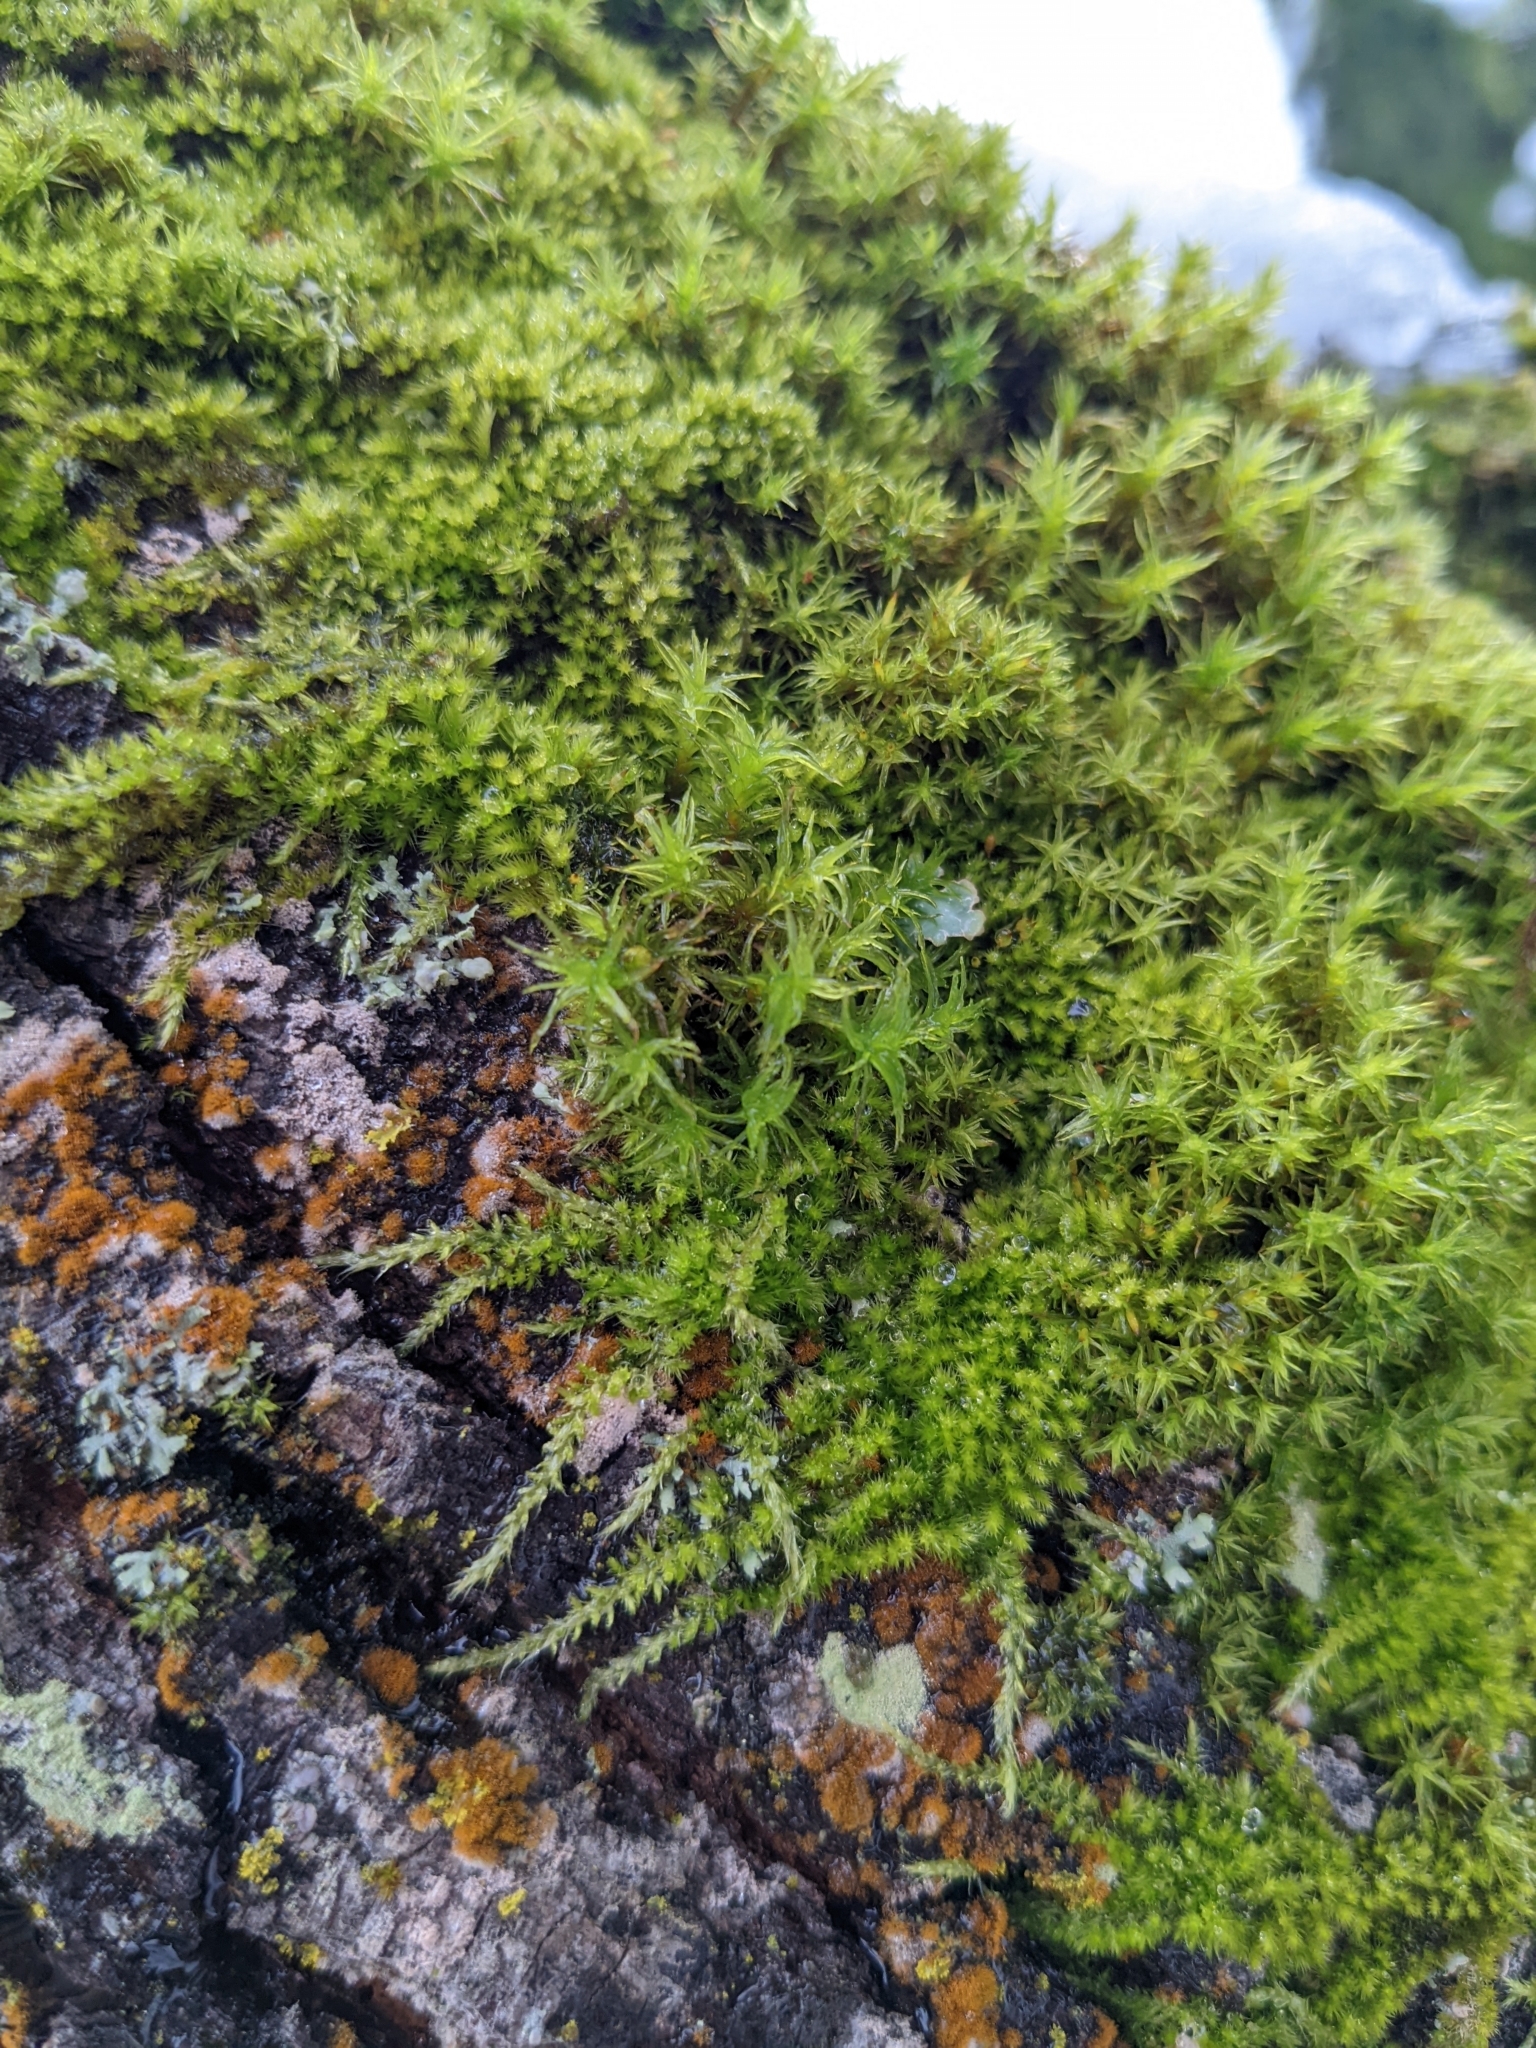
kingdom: Plantae
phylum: Bryophyta
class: Bryopsida
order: Hypnales
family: Brachytheciaceae
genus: Homalothecium
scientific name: Homalothecium nuttallii
